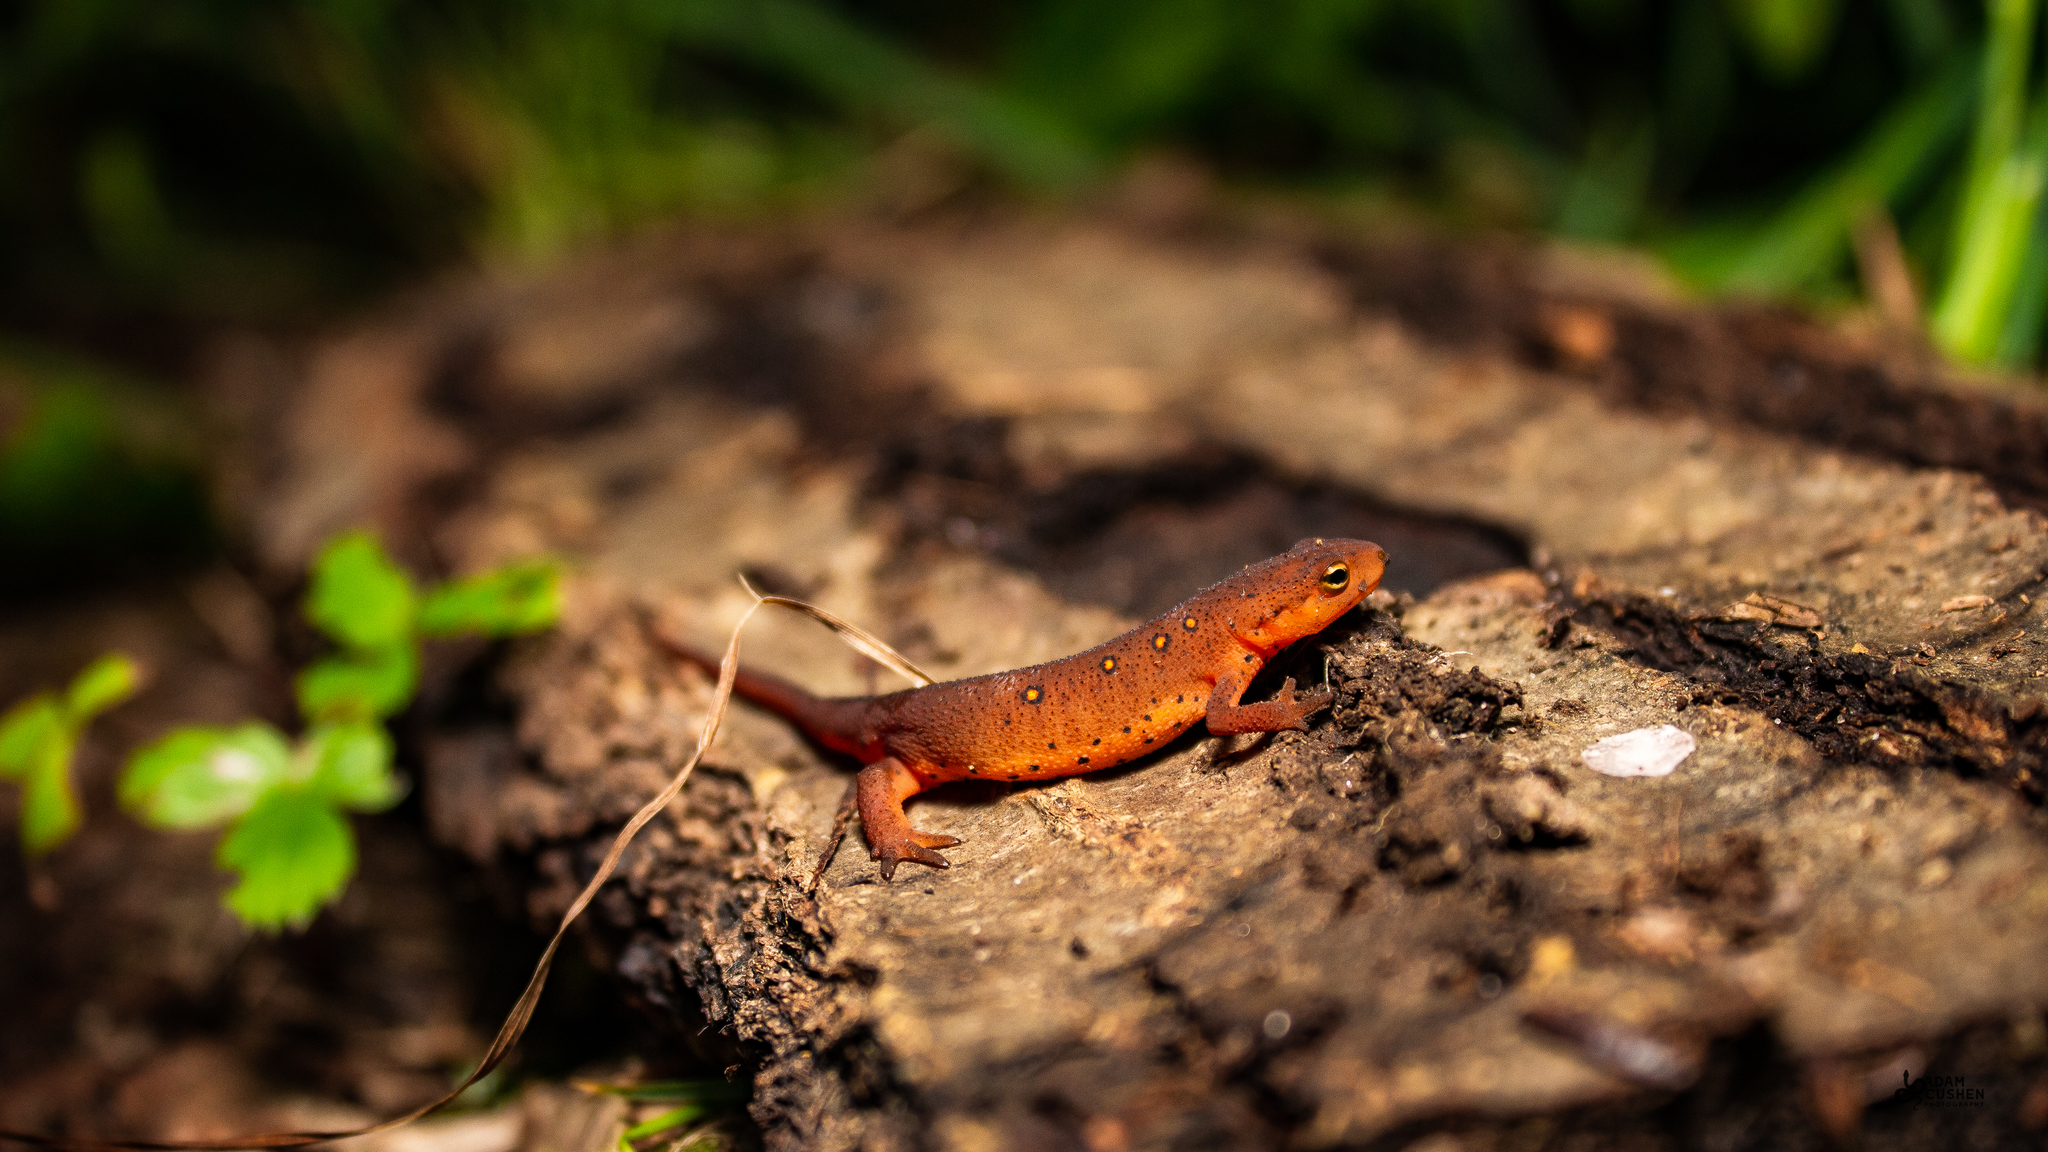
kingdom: Animalia
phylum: Chordata
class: Amphibia
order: Caudata
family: Salamandridae
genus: Notophthalmus
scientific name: Notophthalmus viridescens
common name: Eastern newt
